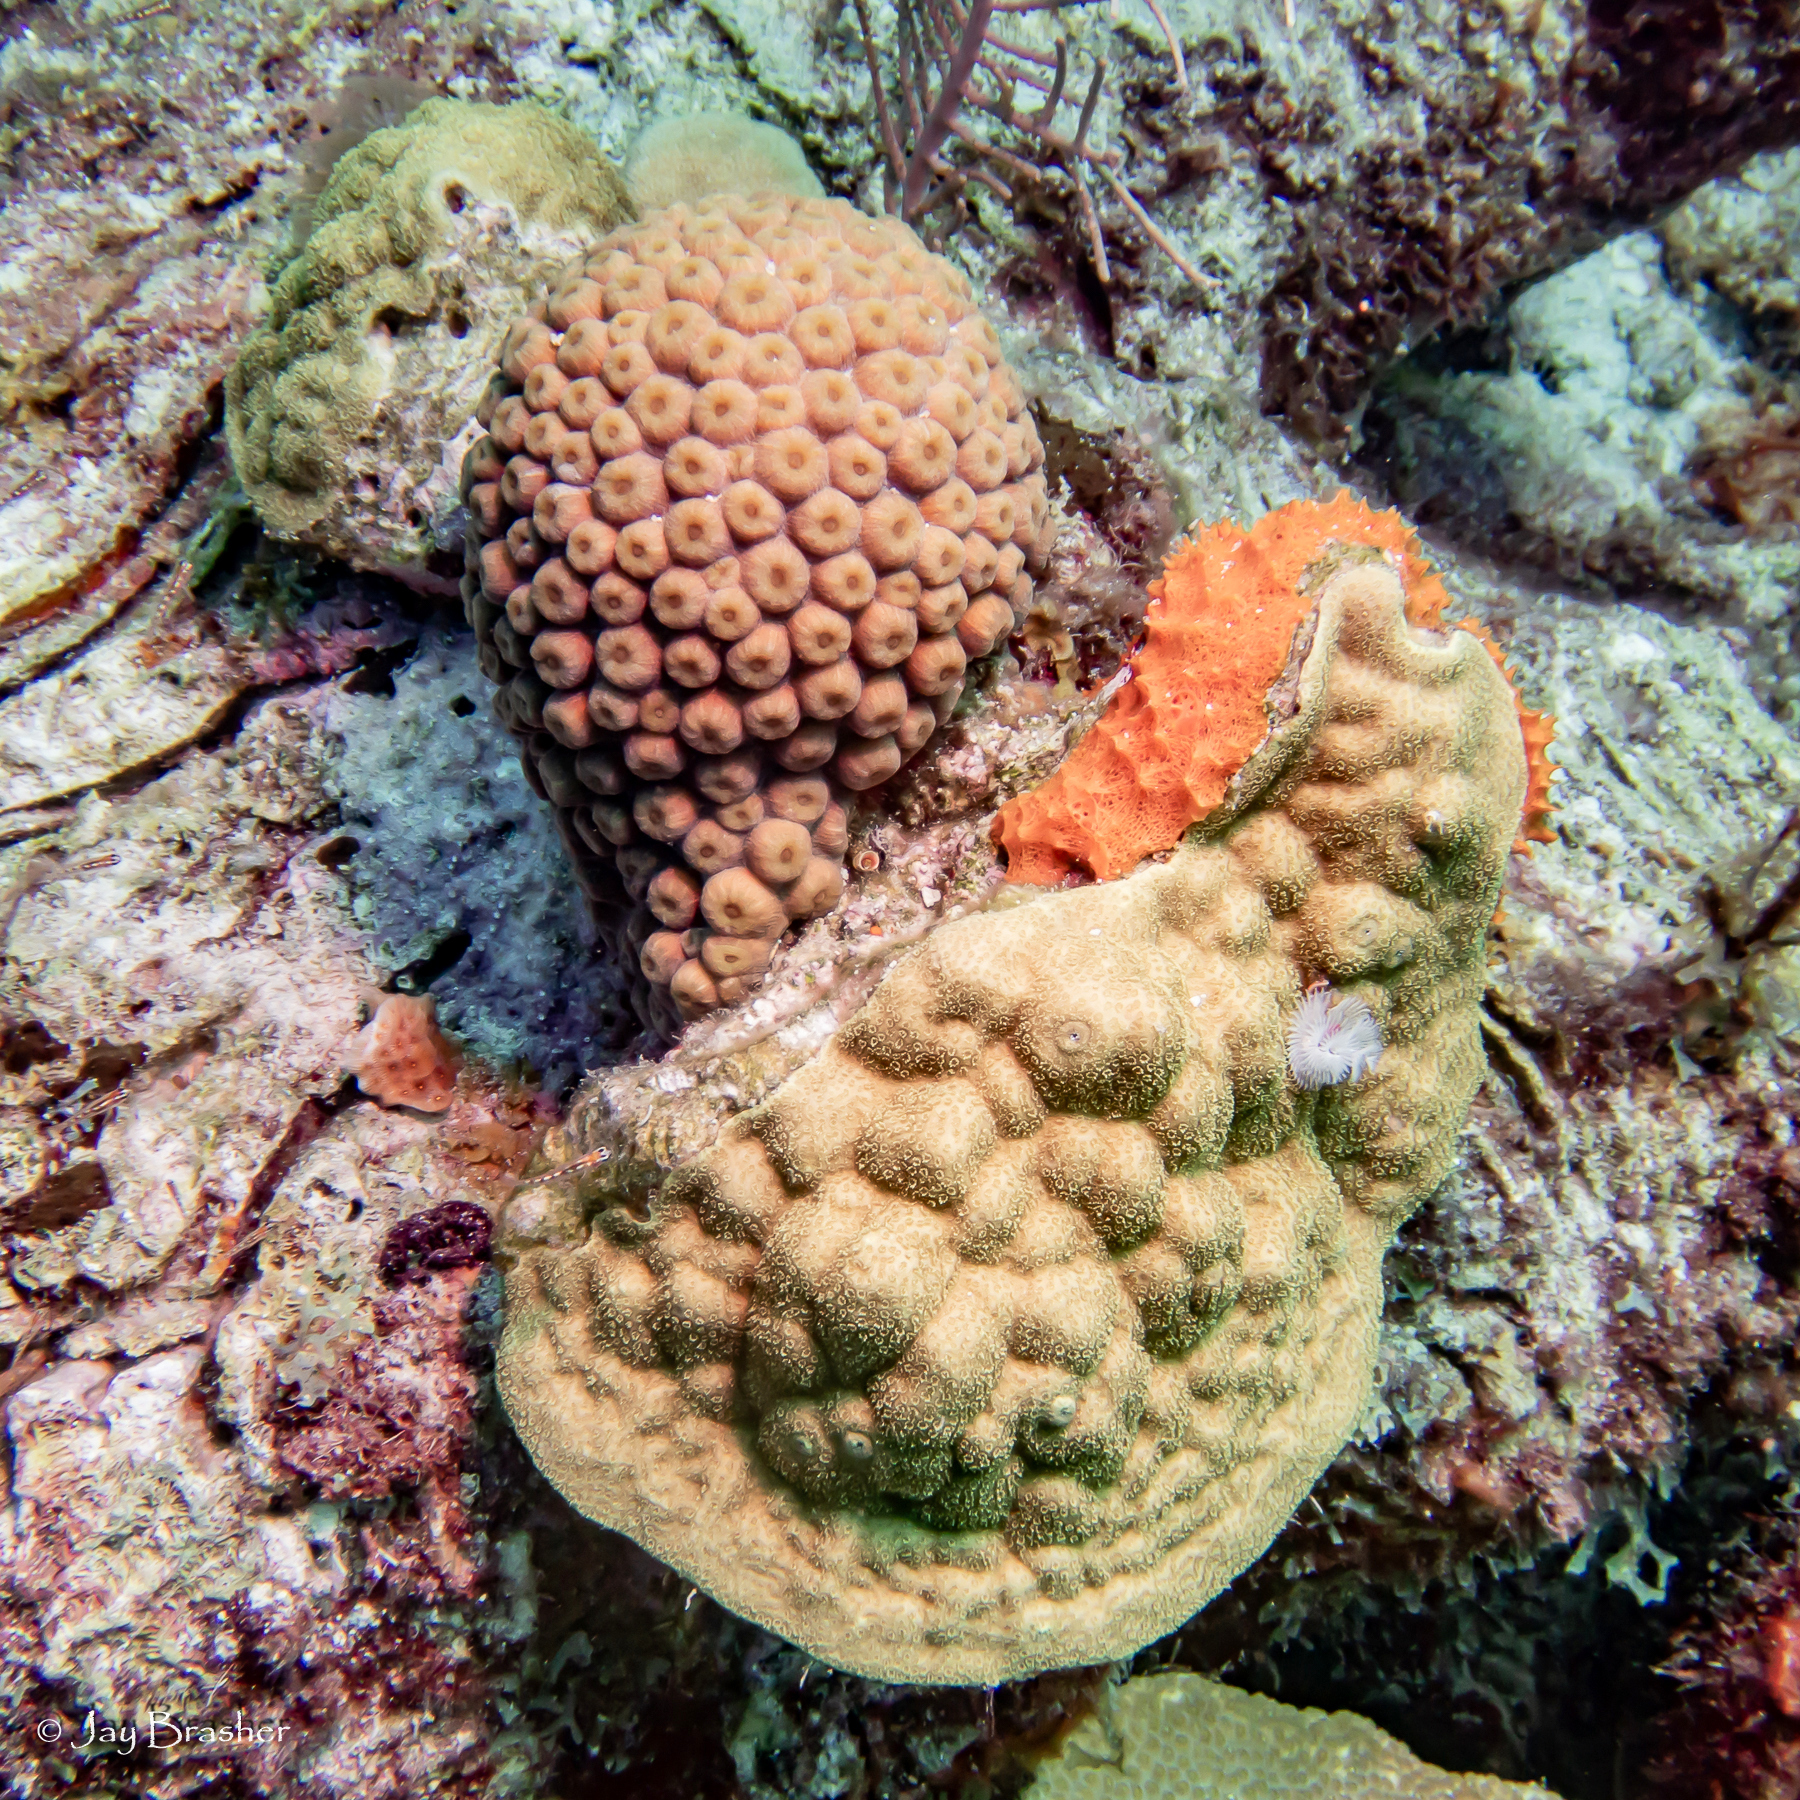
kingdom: Animalia
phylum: Cnidaria
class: Anthozoa
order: Scleractinia
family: Poritidae
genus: Porites
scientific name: Porites astreoides
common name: Mustard hill coral
